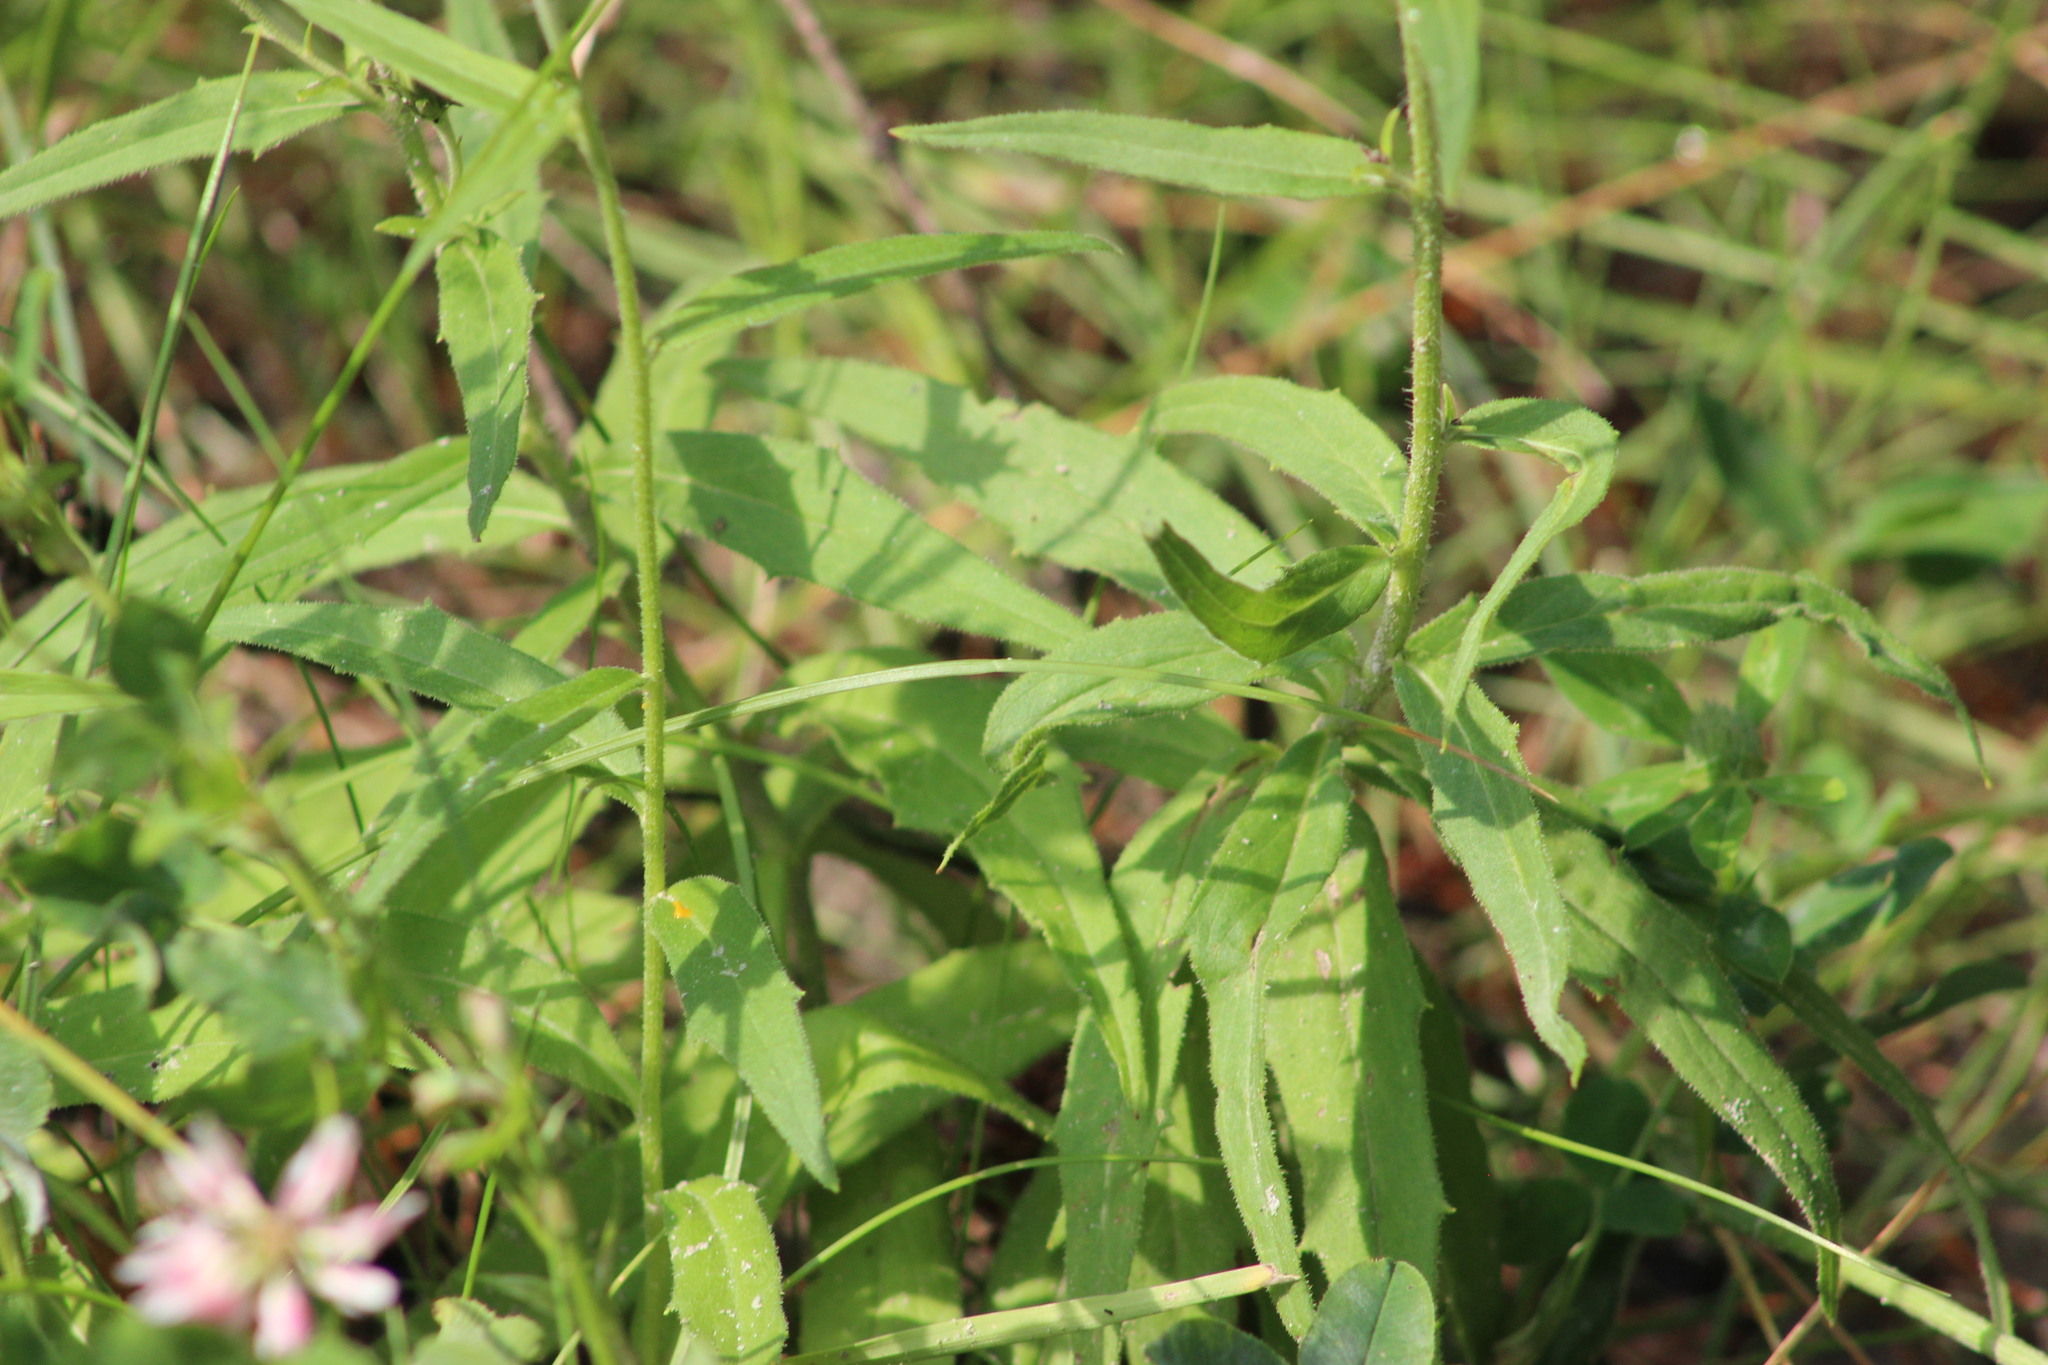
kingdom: Plantae
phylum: Tracheophyta
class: Magnoliopsida
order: Asterales
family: Asteraceae
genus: Hieracium
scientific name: Hieracium umbellatum
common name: Northern hawkweed
